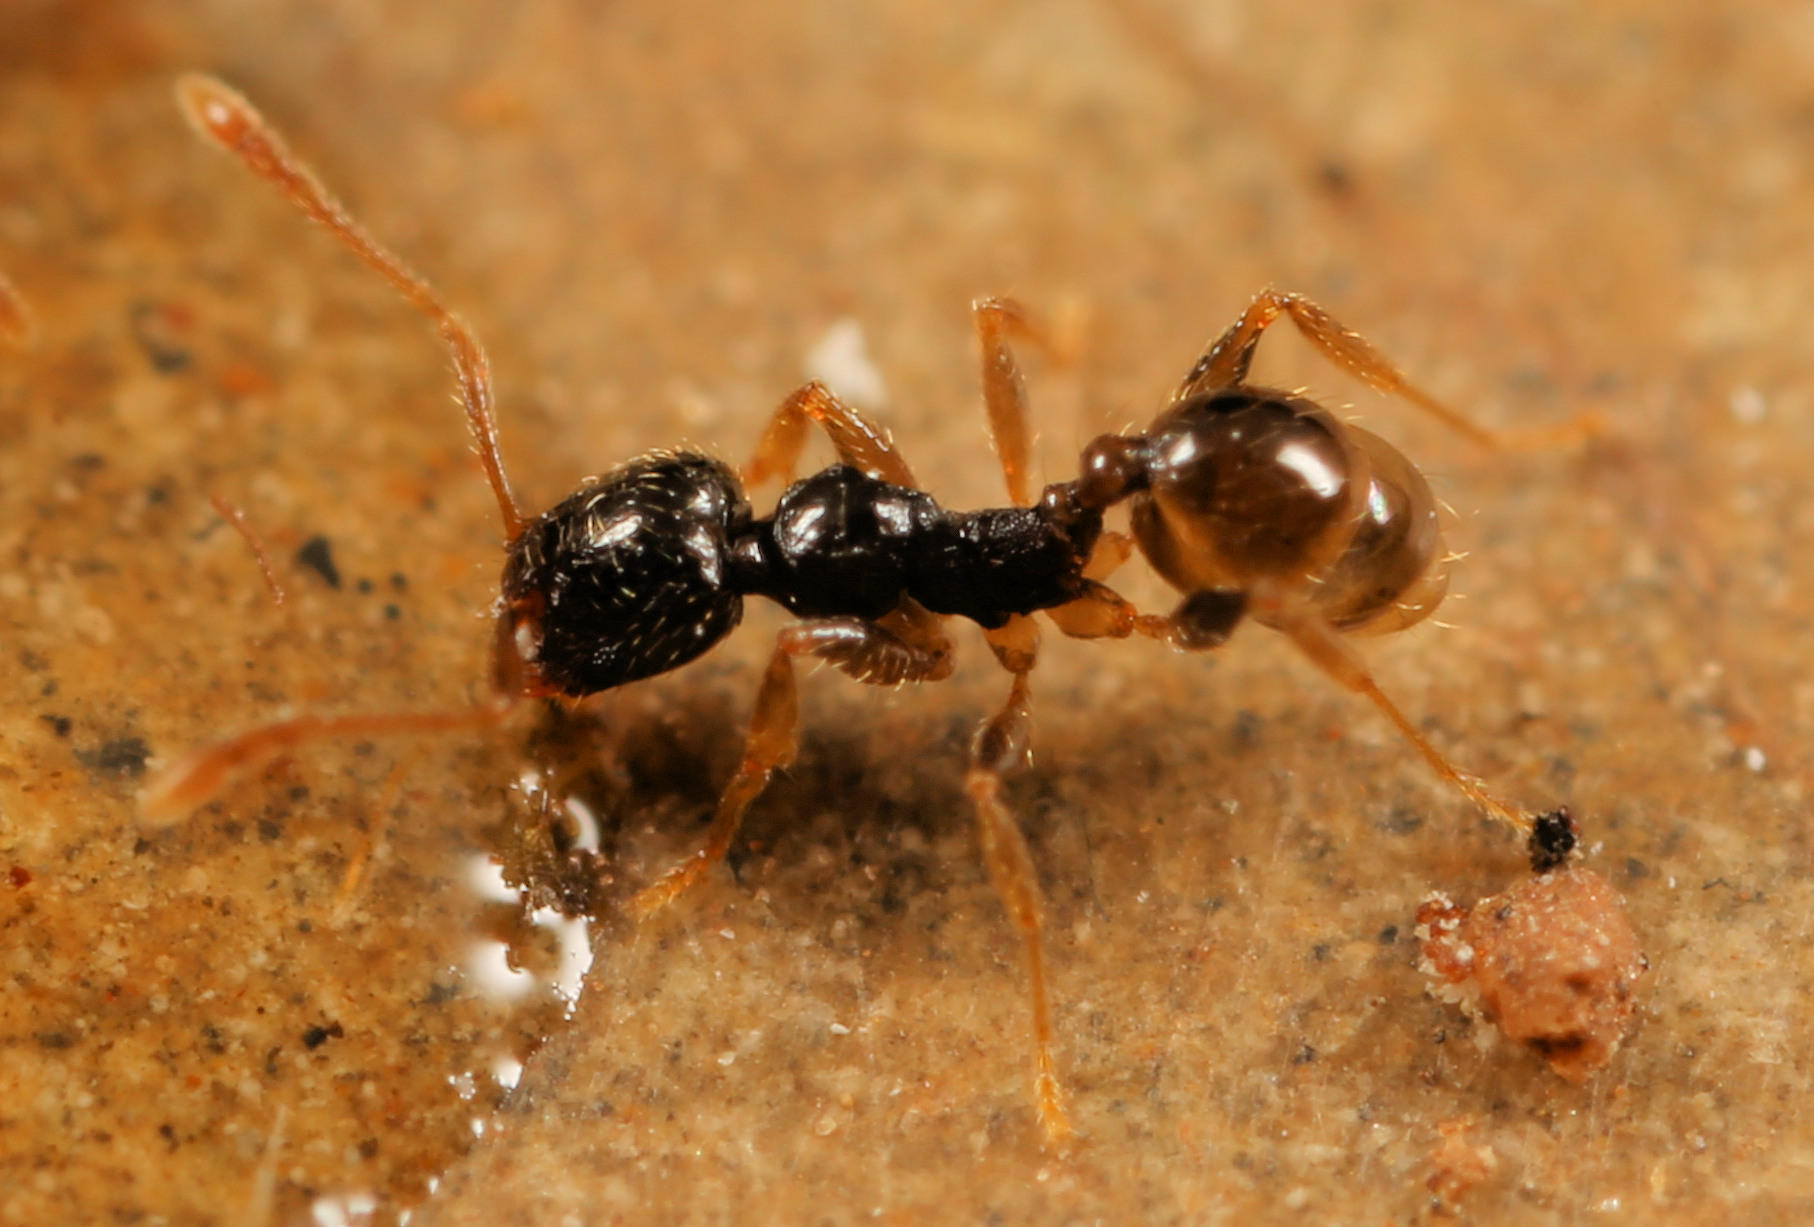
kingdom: Animalia
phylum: Arthropoda
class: Insecta
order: Hymenoptera
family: Formicidae
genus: Pheidole
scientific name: Pheidole strator
